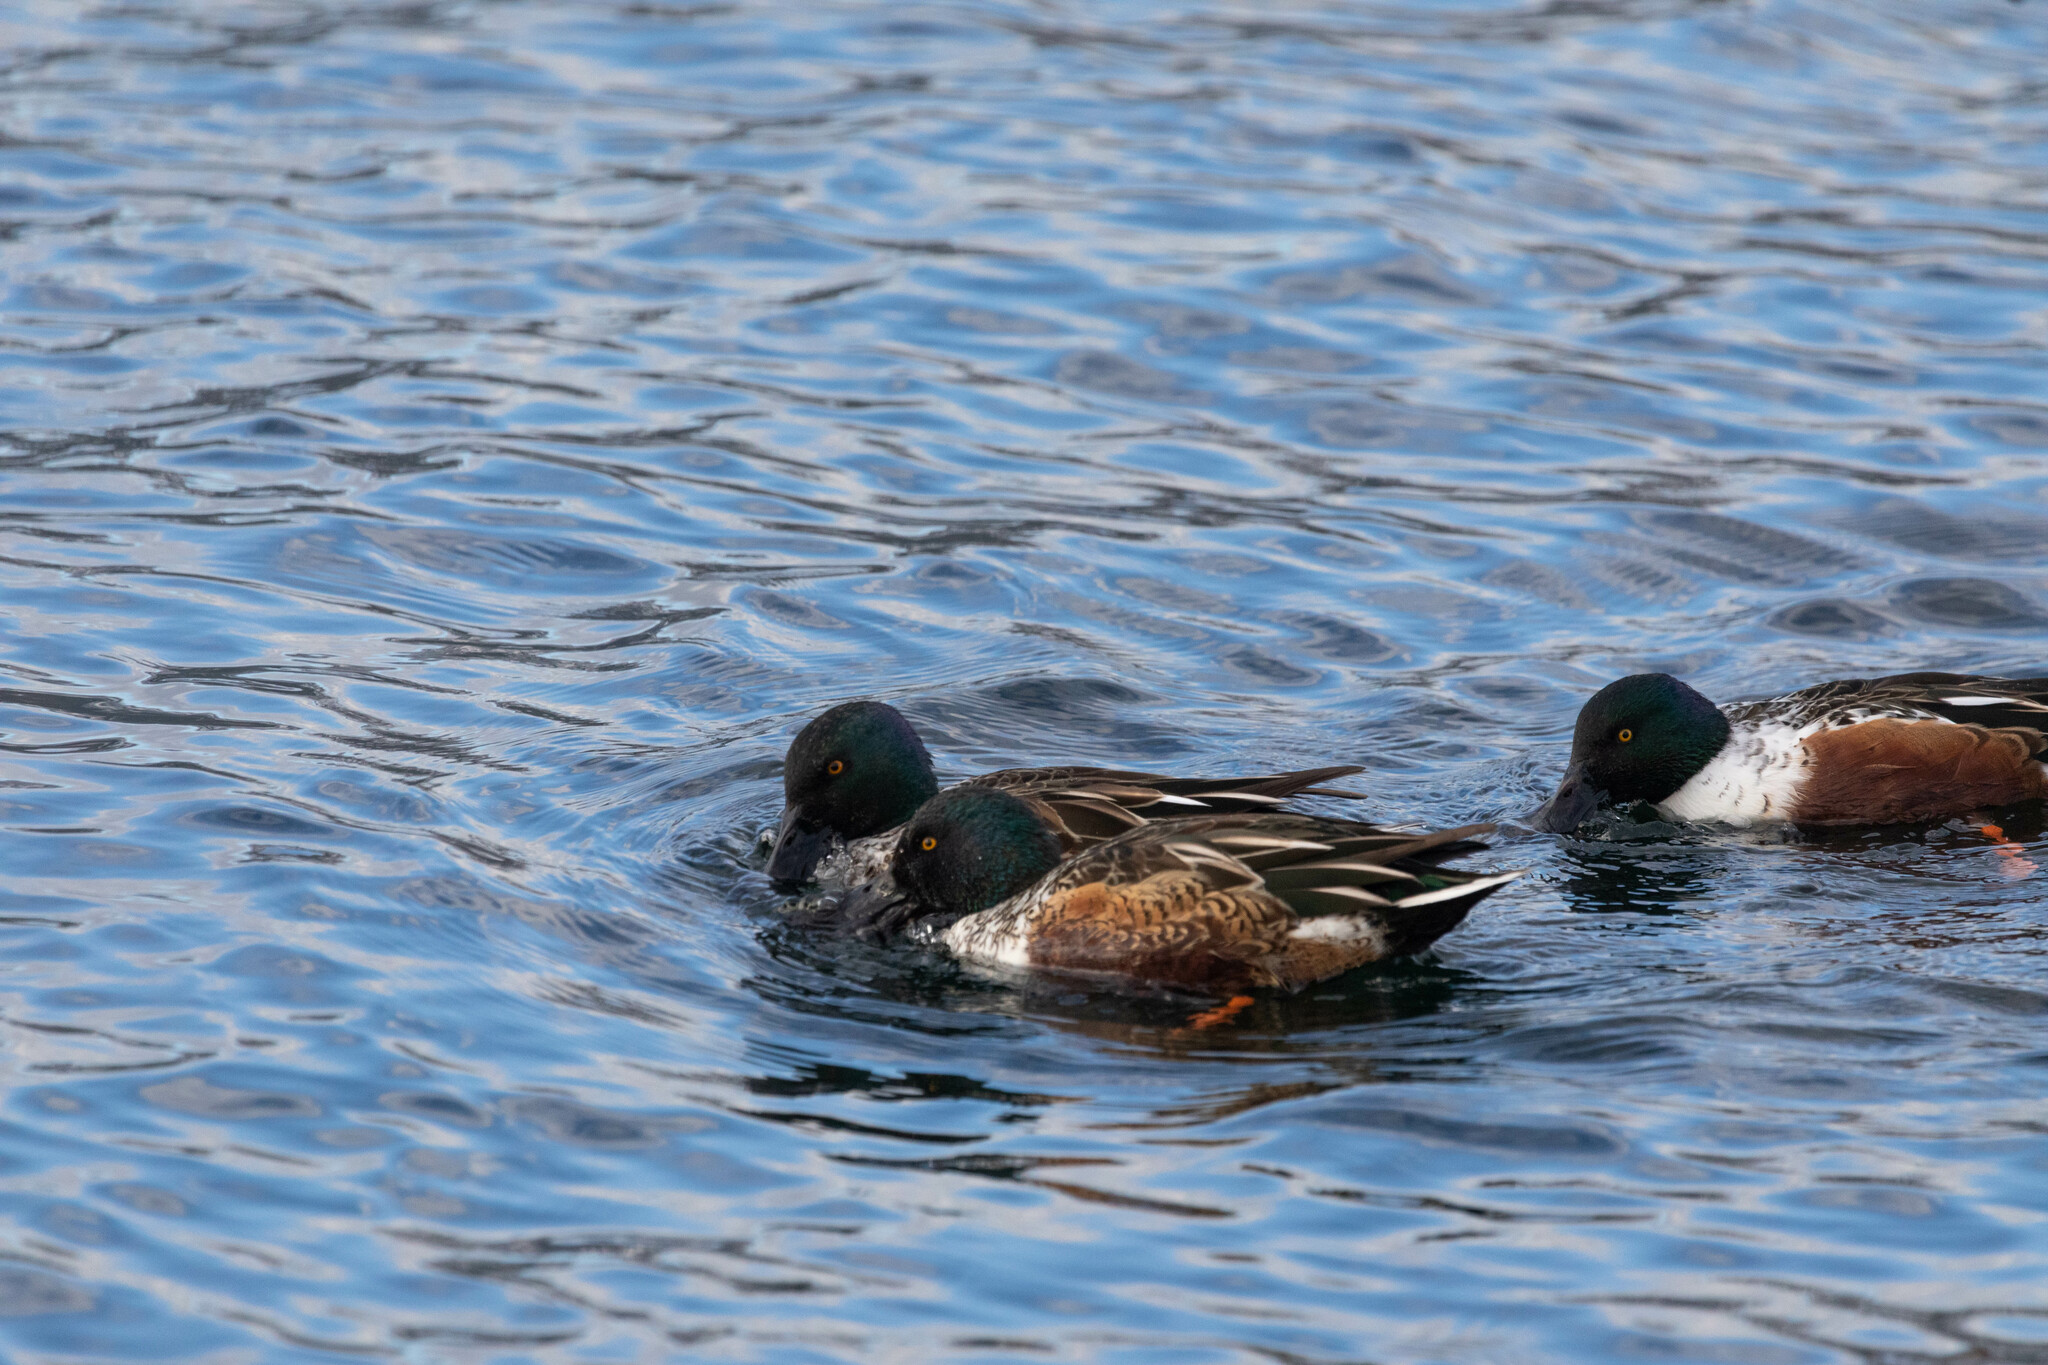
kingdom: Animalia
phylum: Chordata
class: Aves
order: Anseriformes
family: Anatidae
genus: Spatula
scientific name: Spatula clypeata
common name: Northern shoveler
